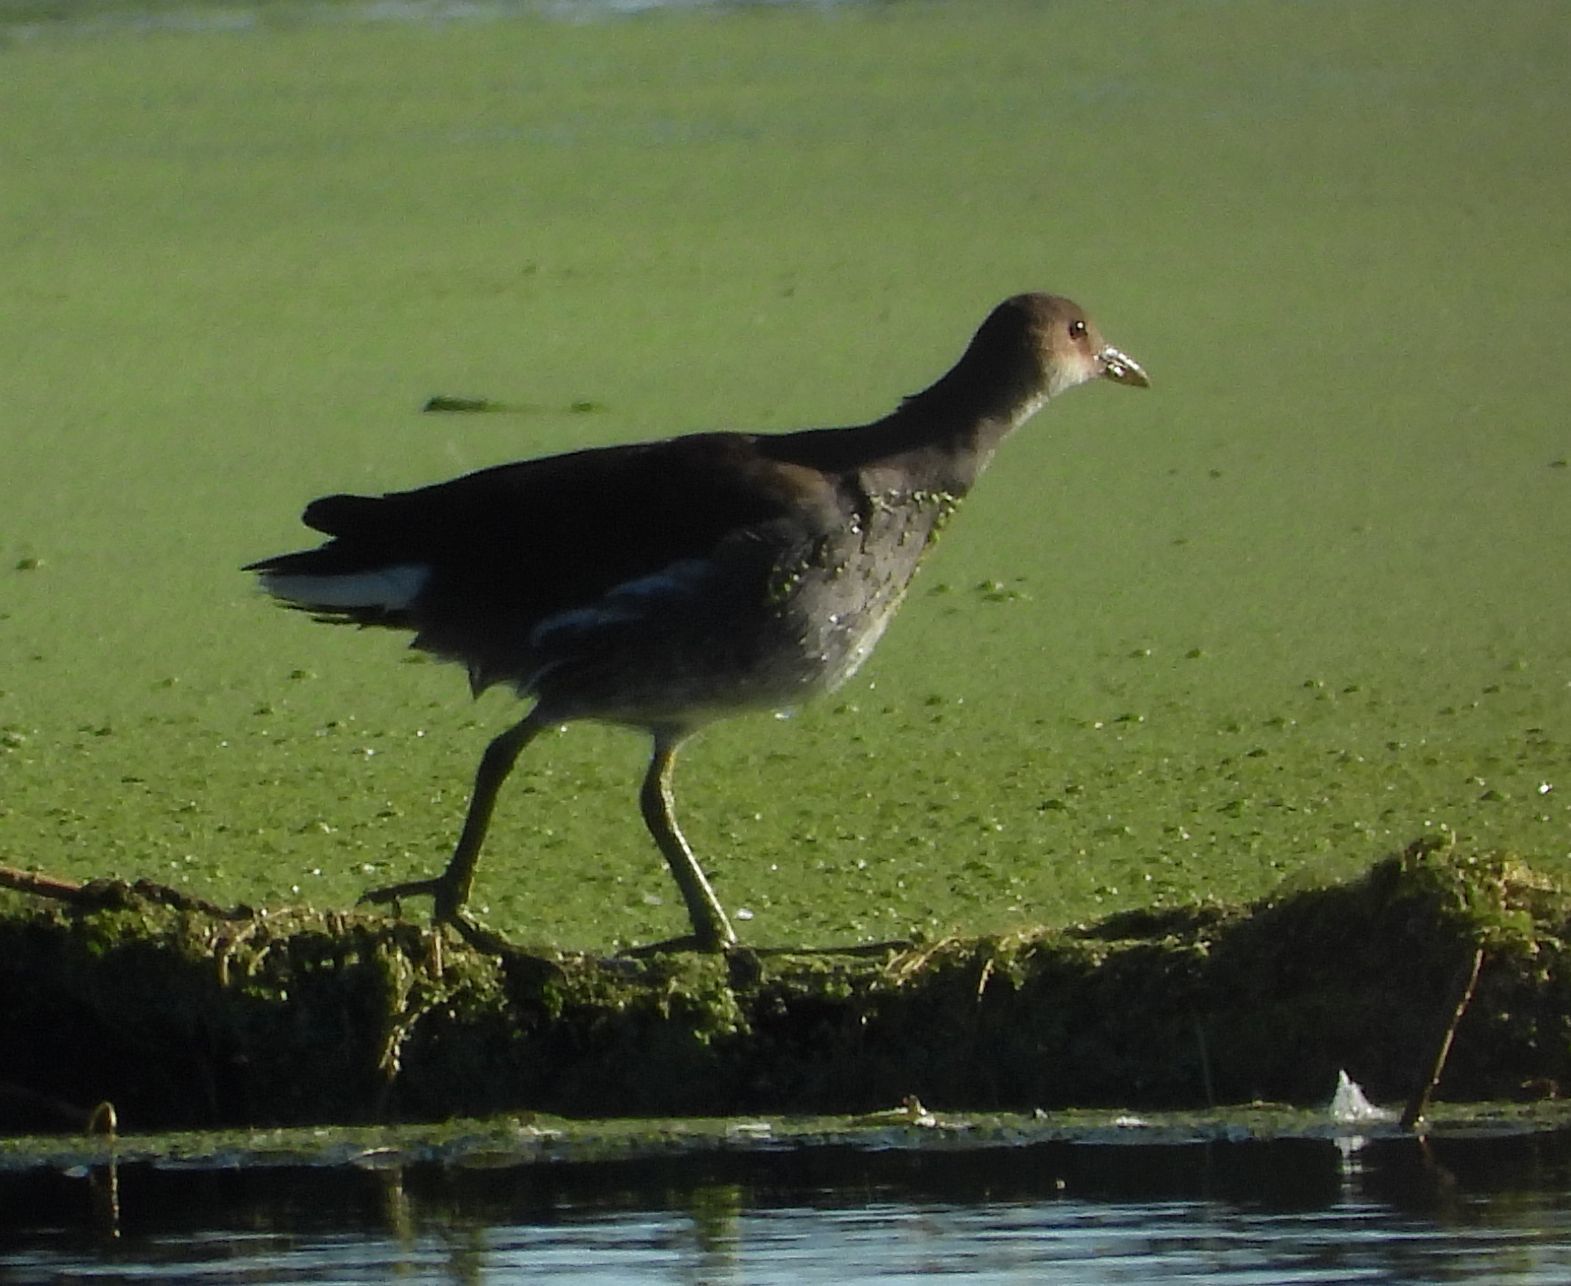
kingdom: Animalia
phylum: Chordata
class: Aves
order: Gruiformes
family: Rallidae
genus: Gallinula
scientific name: Gallinula chloropus
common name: Common moorhen
